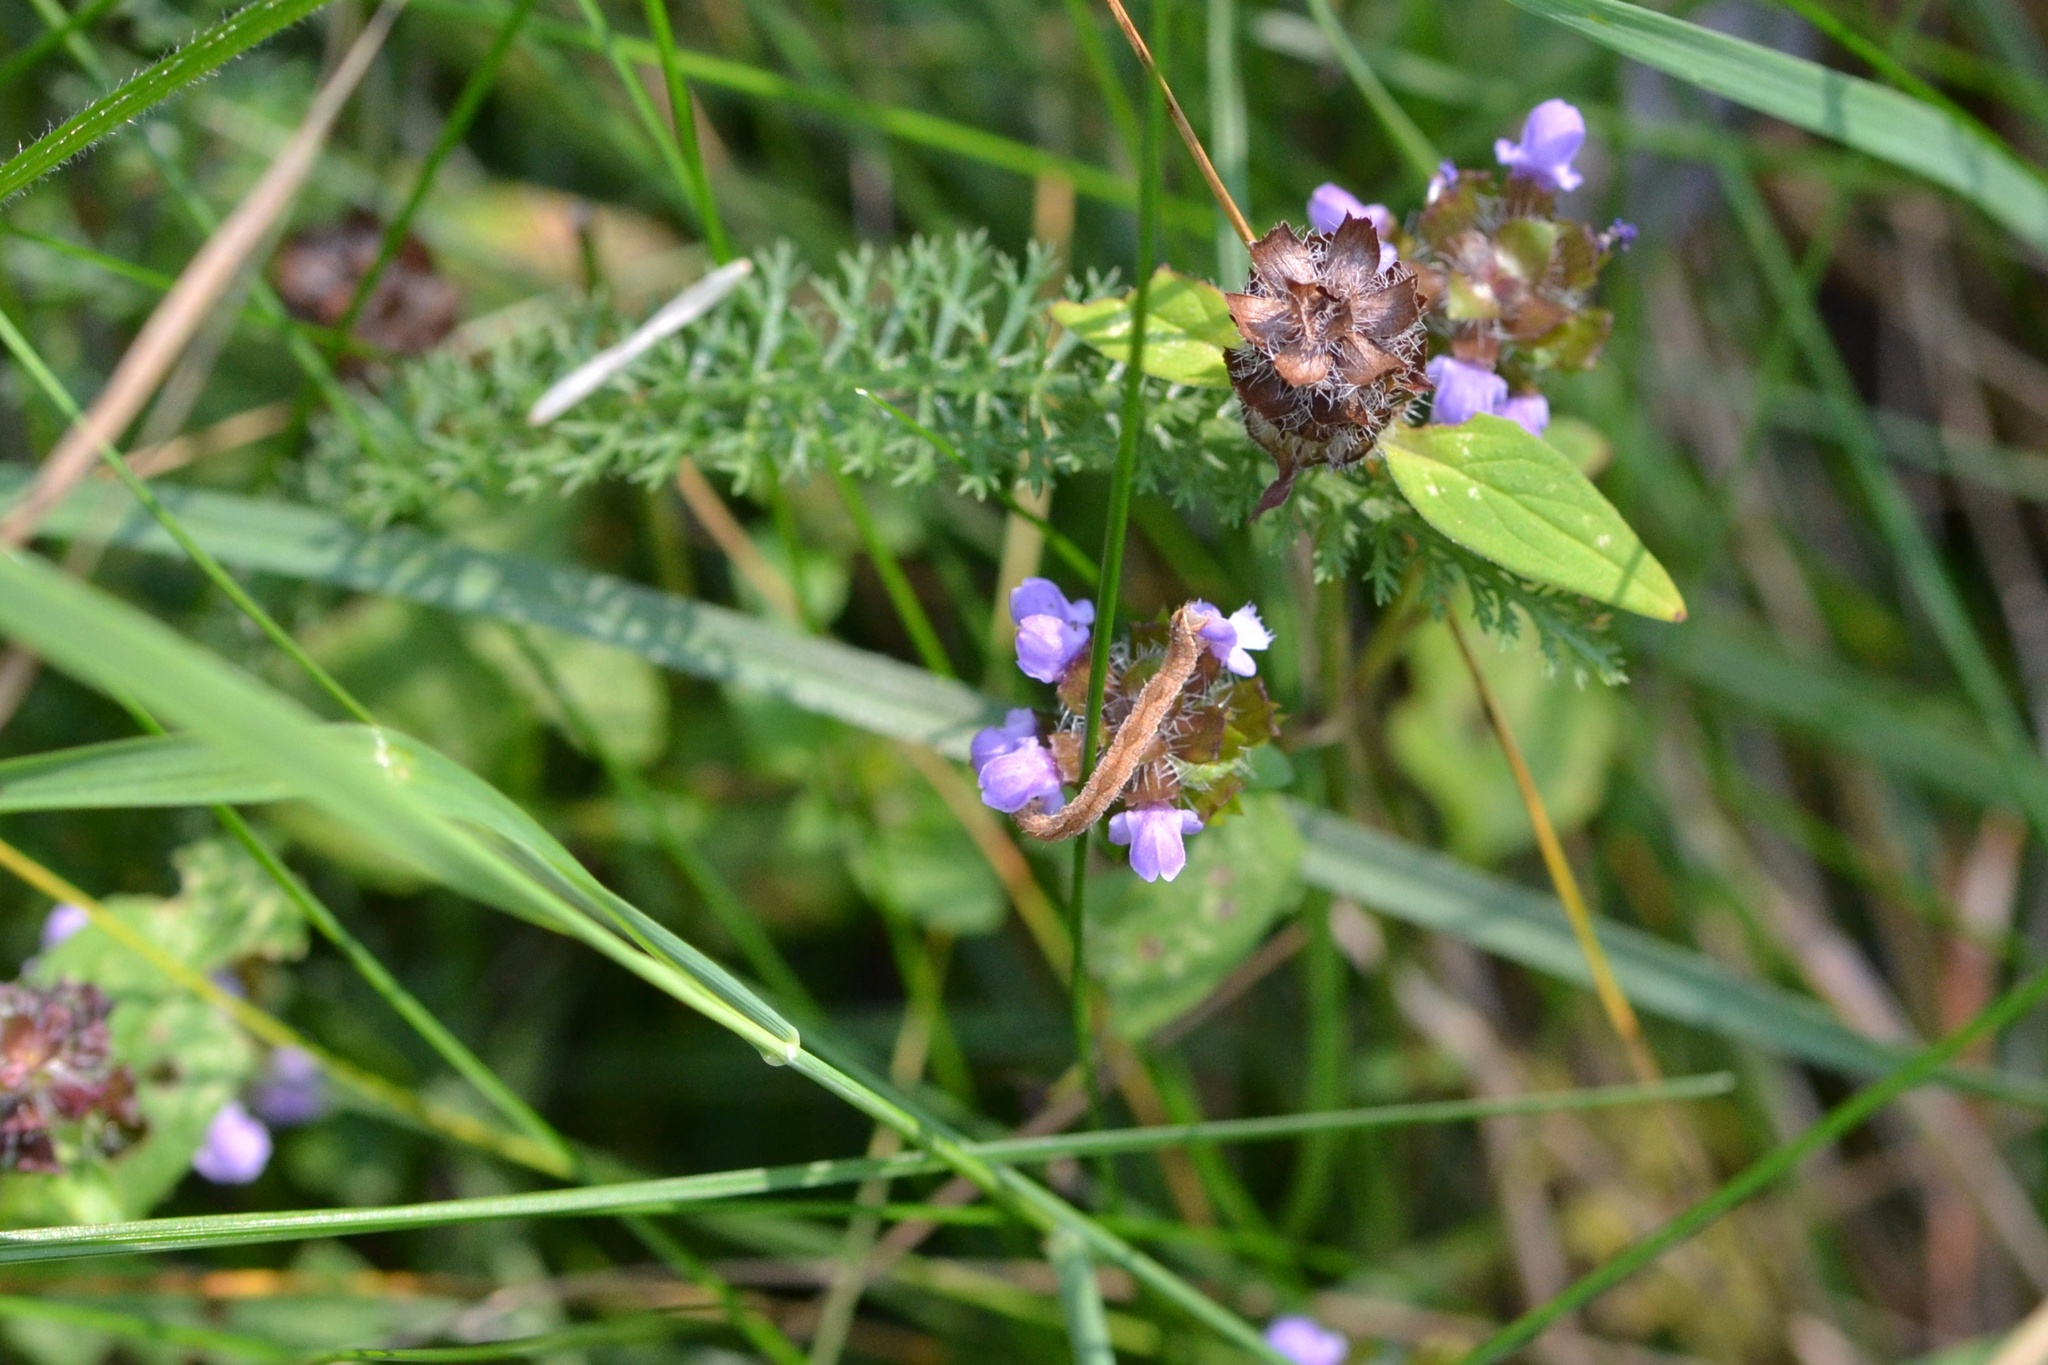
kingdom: Plantae
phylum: Tracheophyta
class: Magnoliopsida
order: Lamiales
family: Lamiaceae
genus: Prunella
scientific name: Prunella vulgaris
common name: Heal-all
